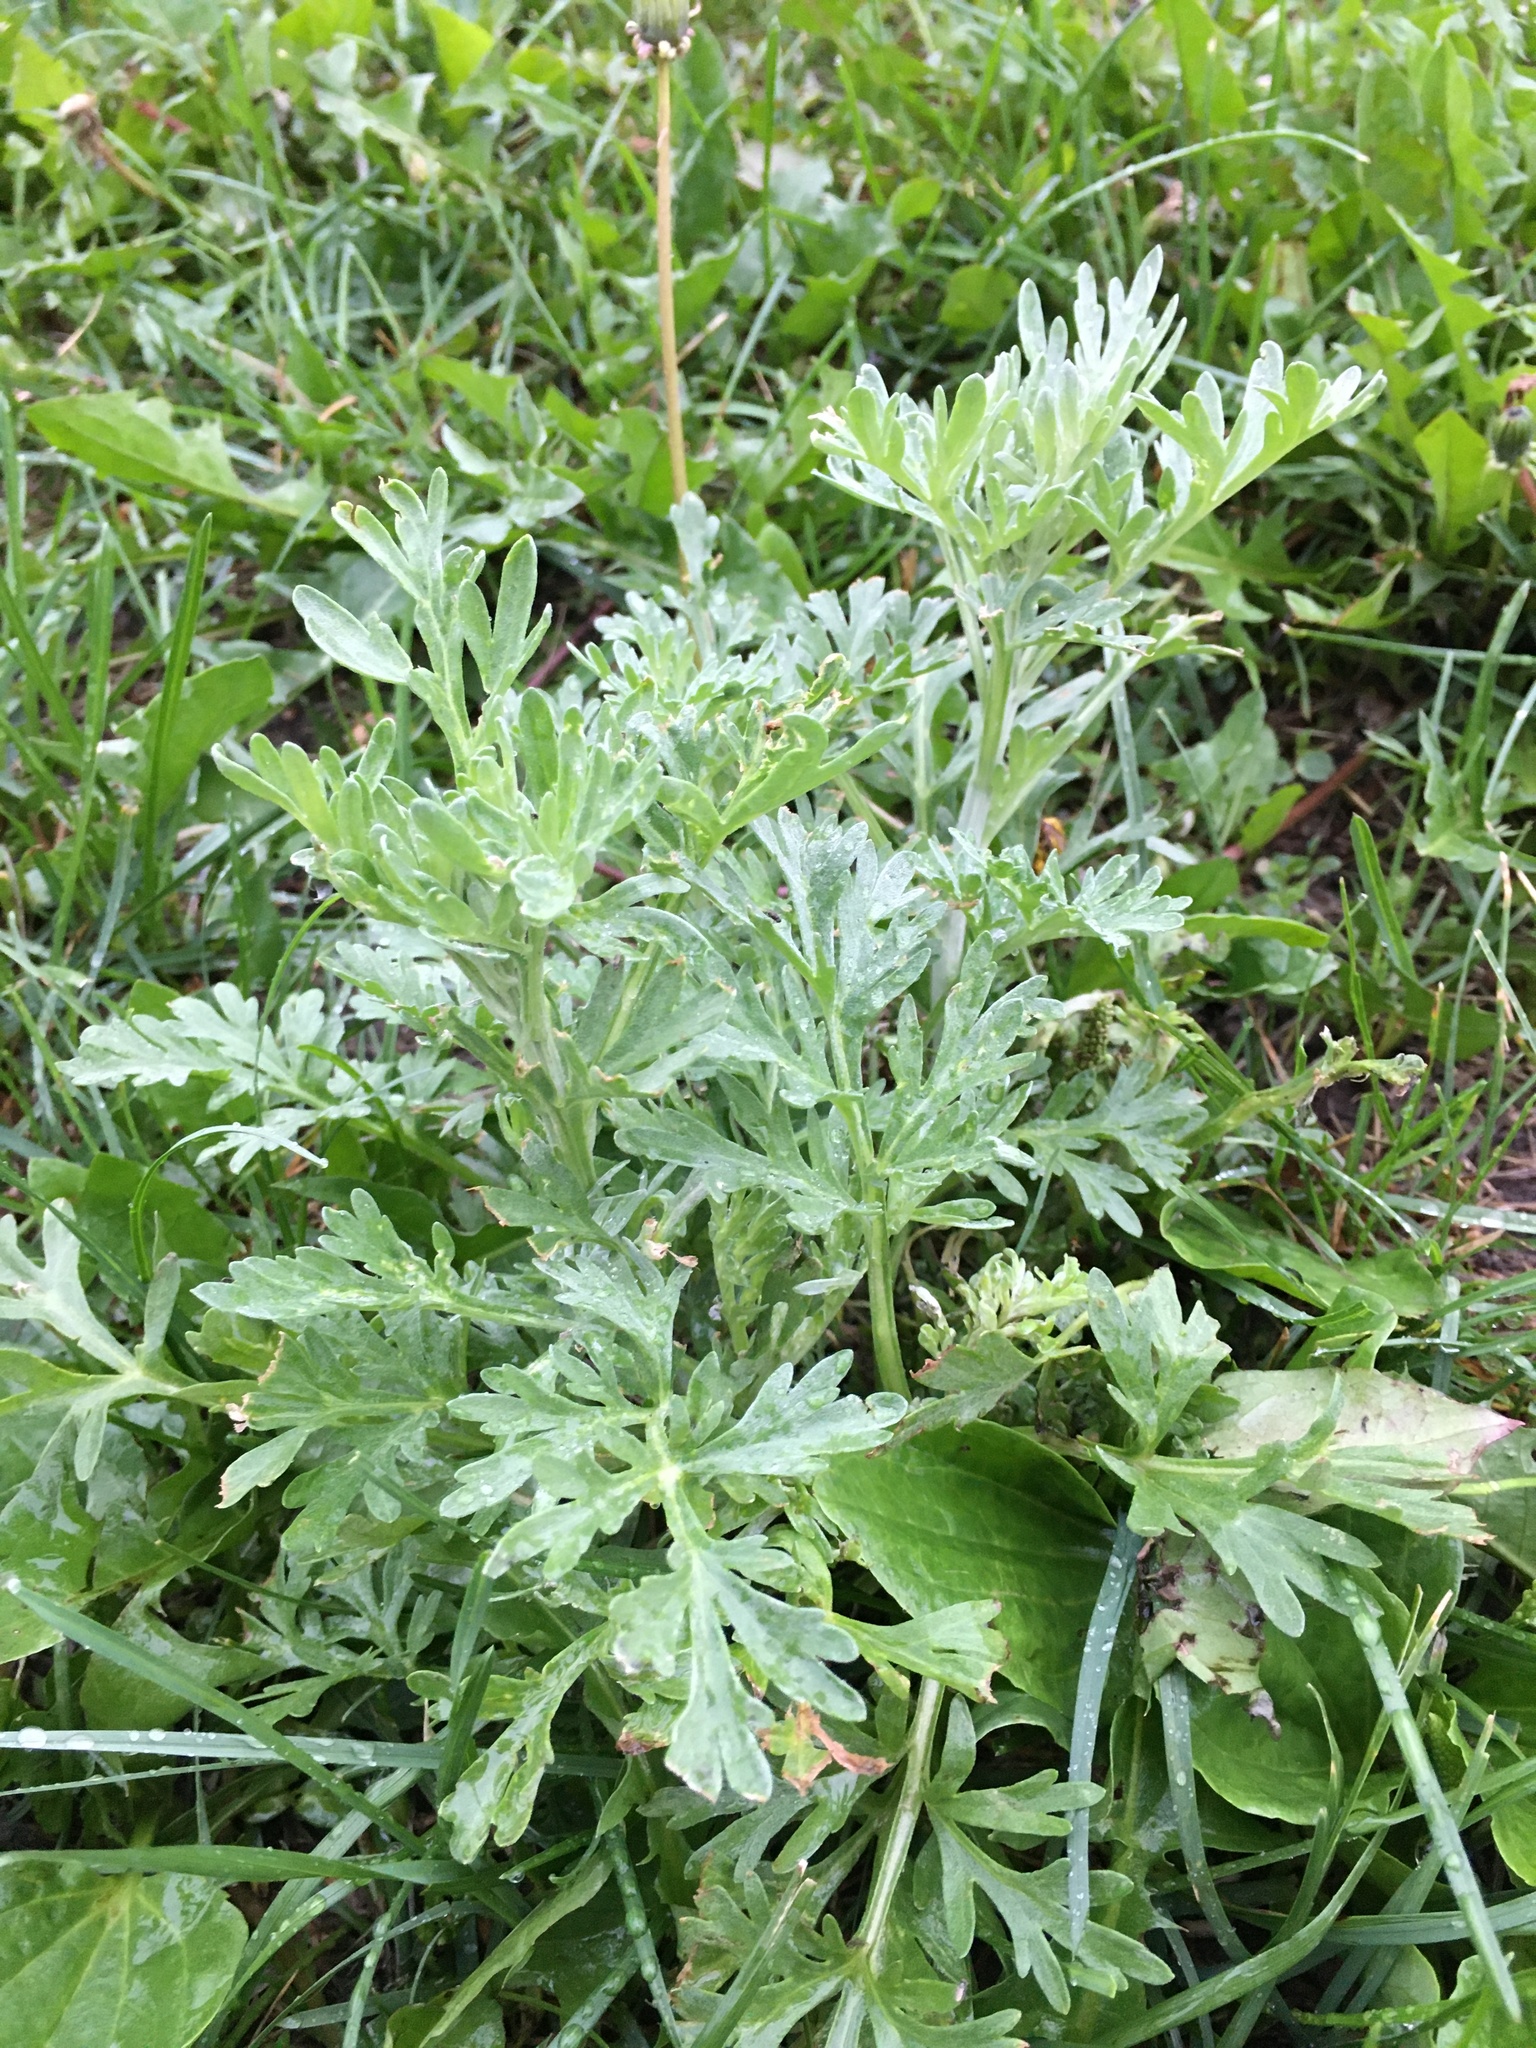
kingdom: Plantae
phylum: Tracheophyta
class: Magnoliopsida
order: Asterales
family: Asteraceae
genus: Artemisia
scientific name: Artemisia absinthium
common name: Wormwood
